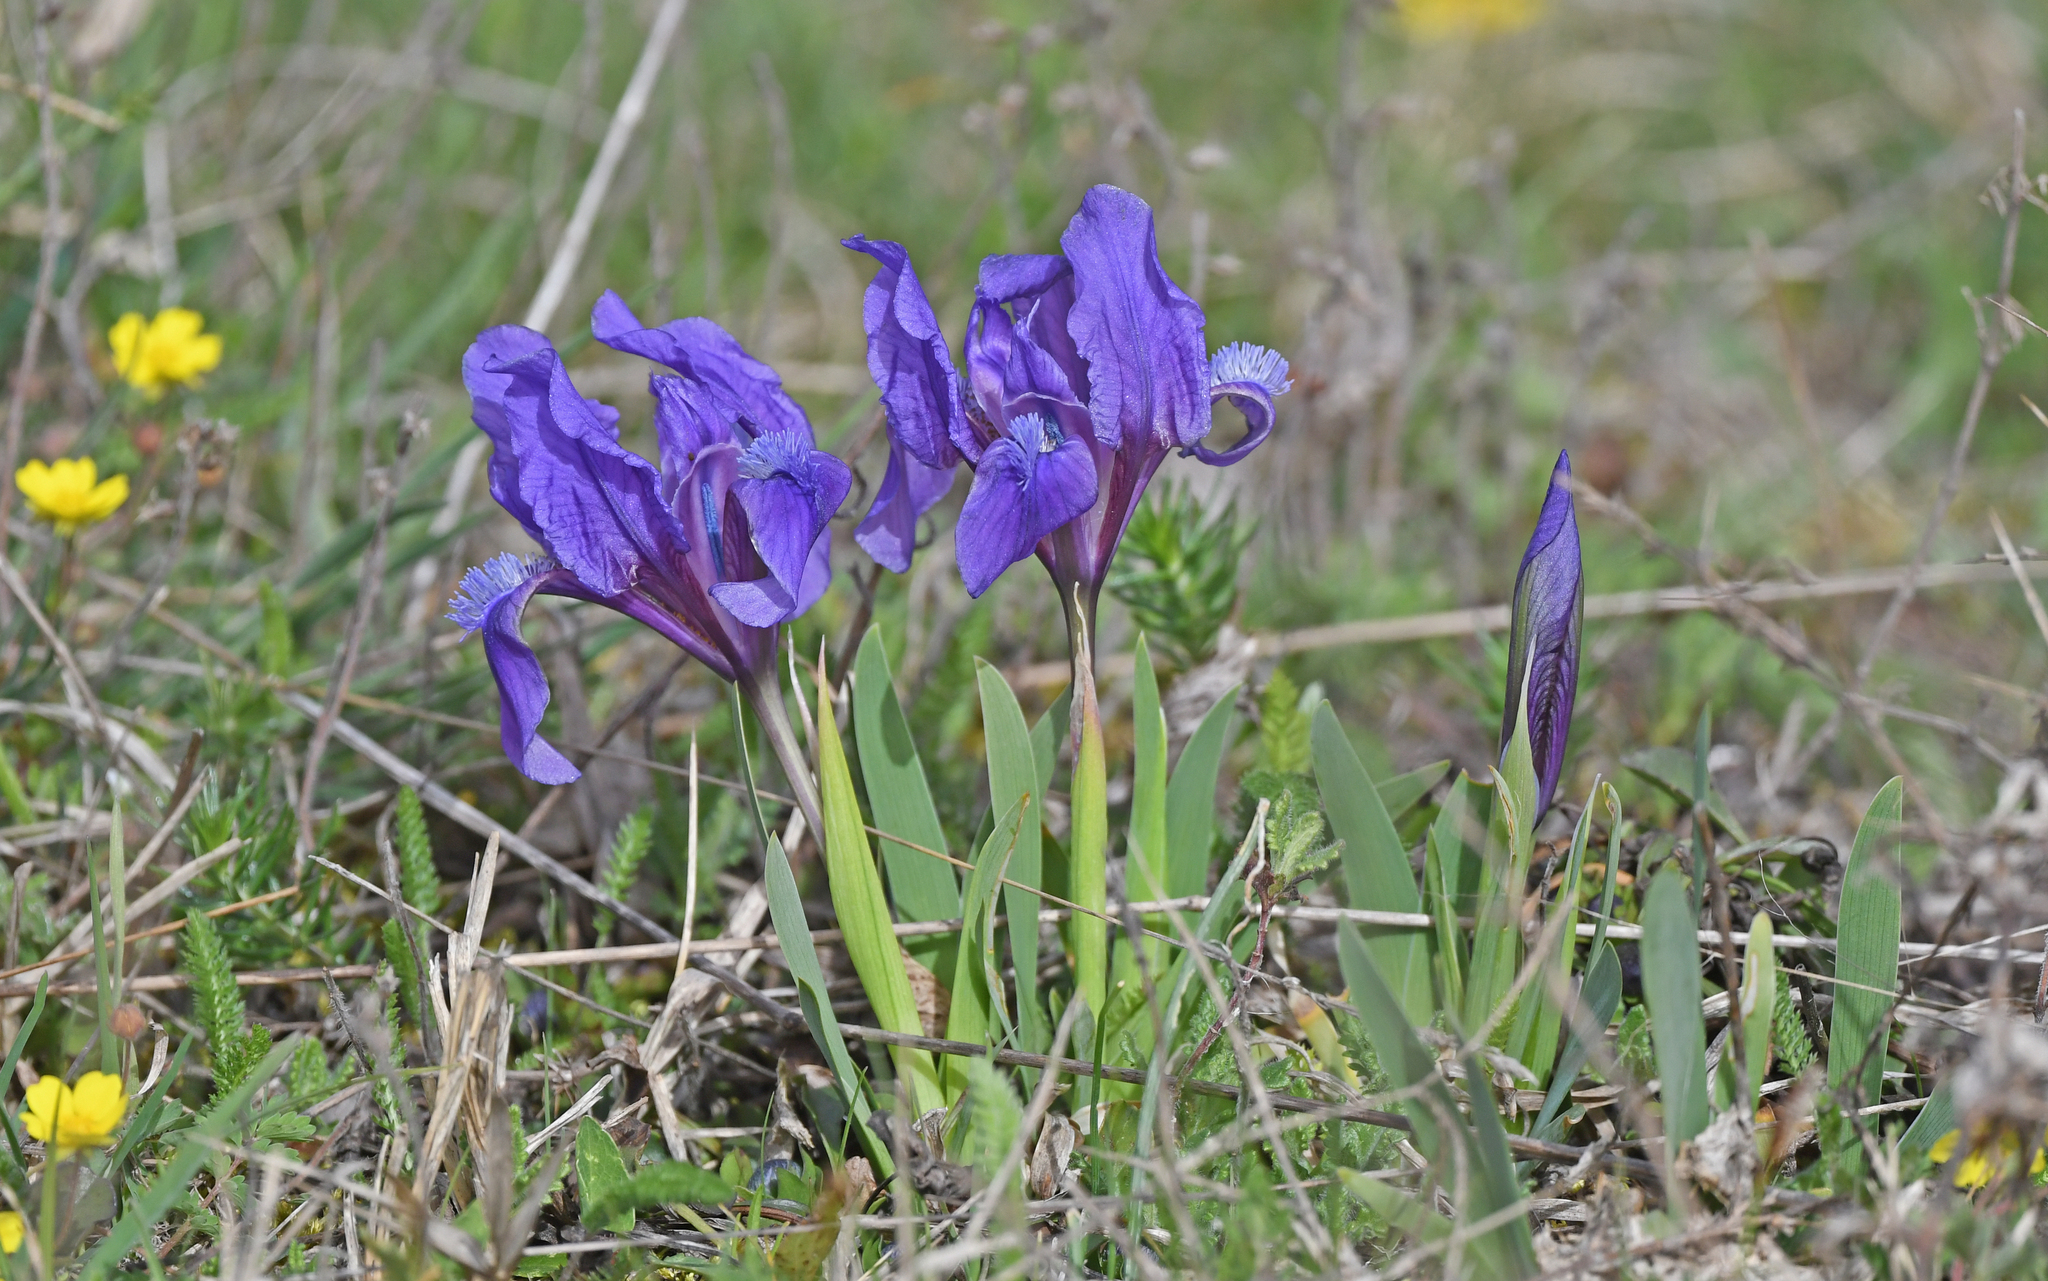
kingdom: Plantae
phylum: Tracheophyta
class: Liliopsida
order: Asparagales
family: Iridaceae
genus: Iris
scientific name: Iris pumila
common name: Dwarf iris
